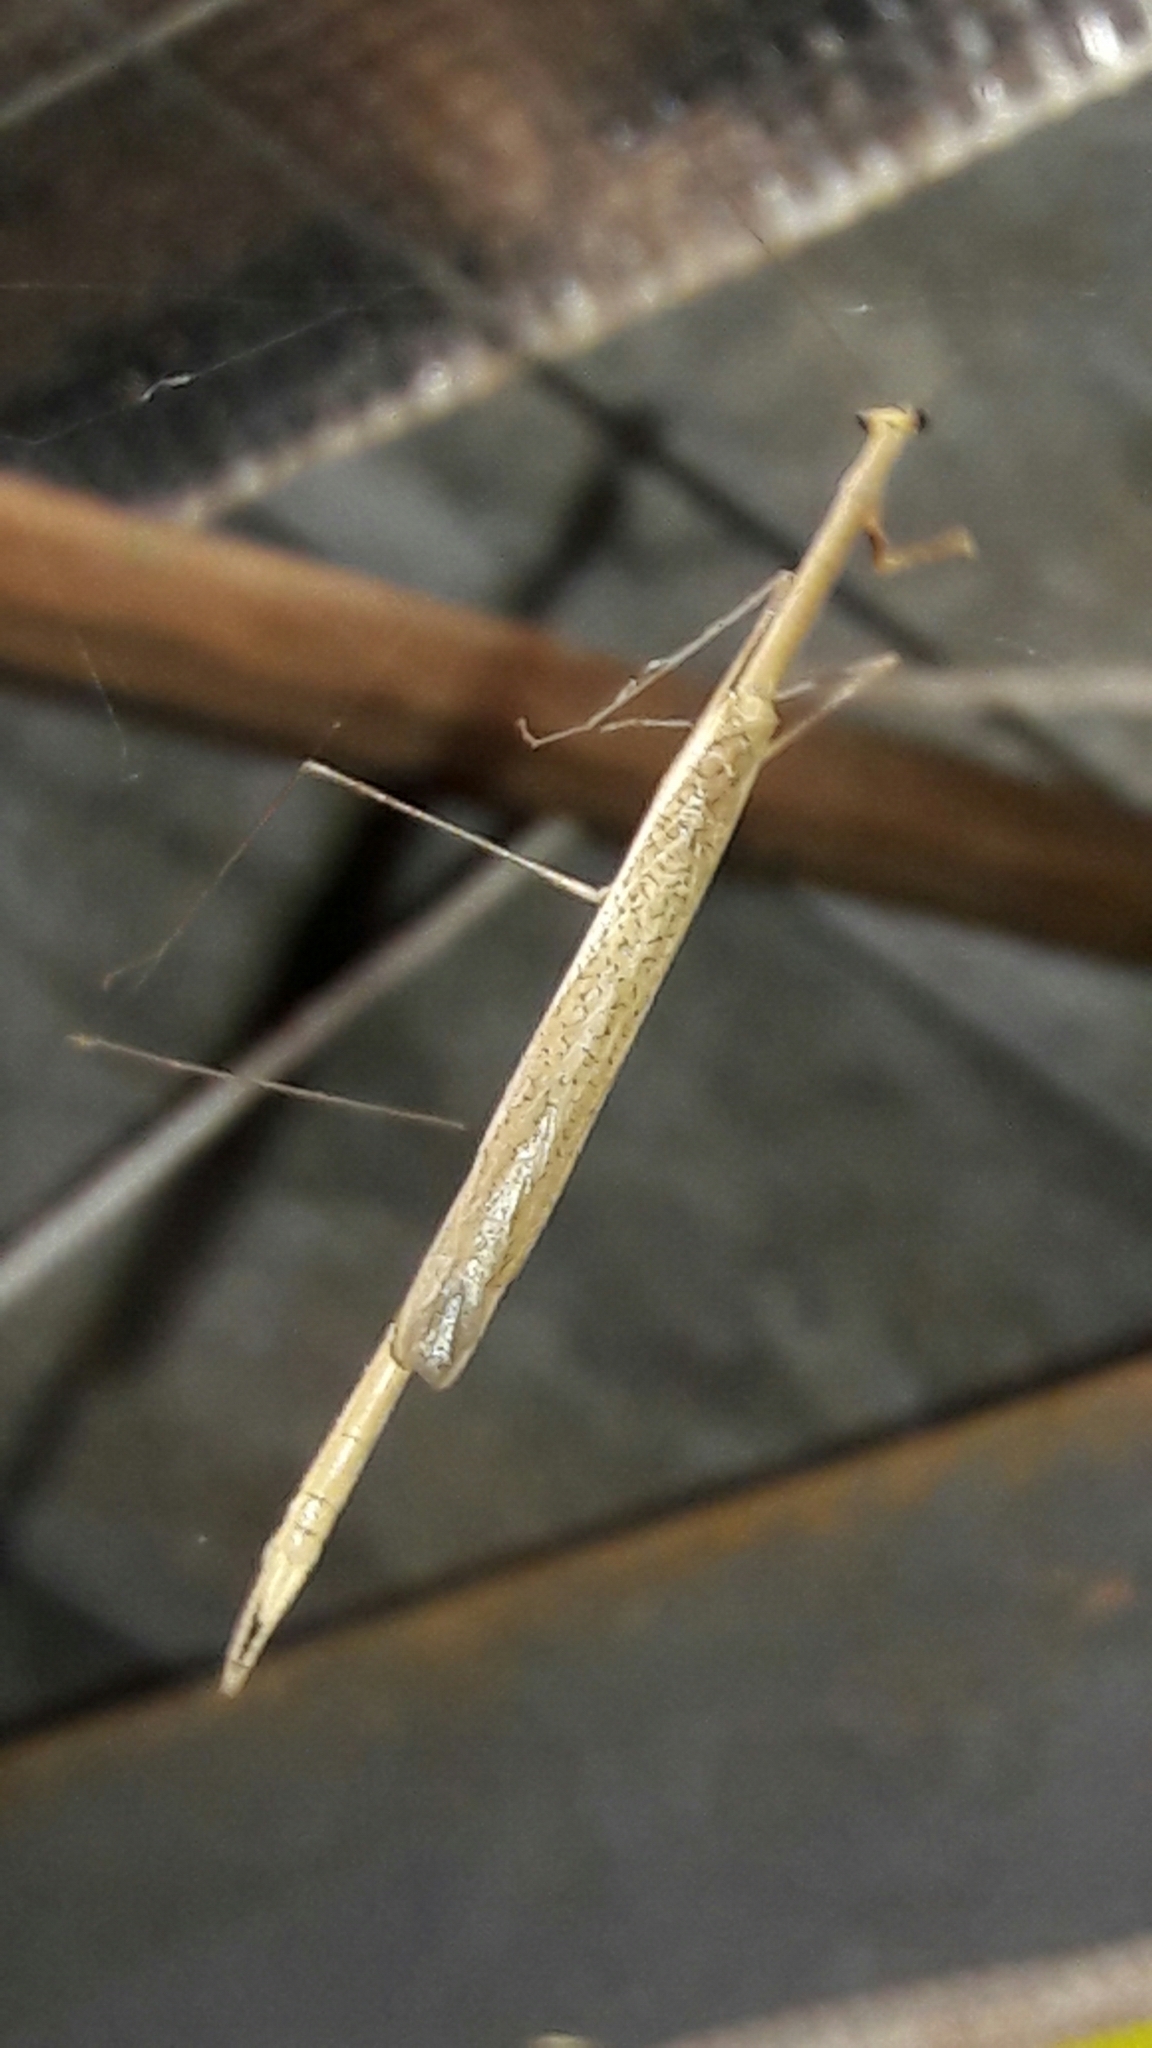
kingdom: Animalia
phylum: Arthropoda
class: Insecta
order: Mantodea
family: Thespidae
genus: Thesprotia
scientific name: Thesprotia
